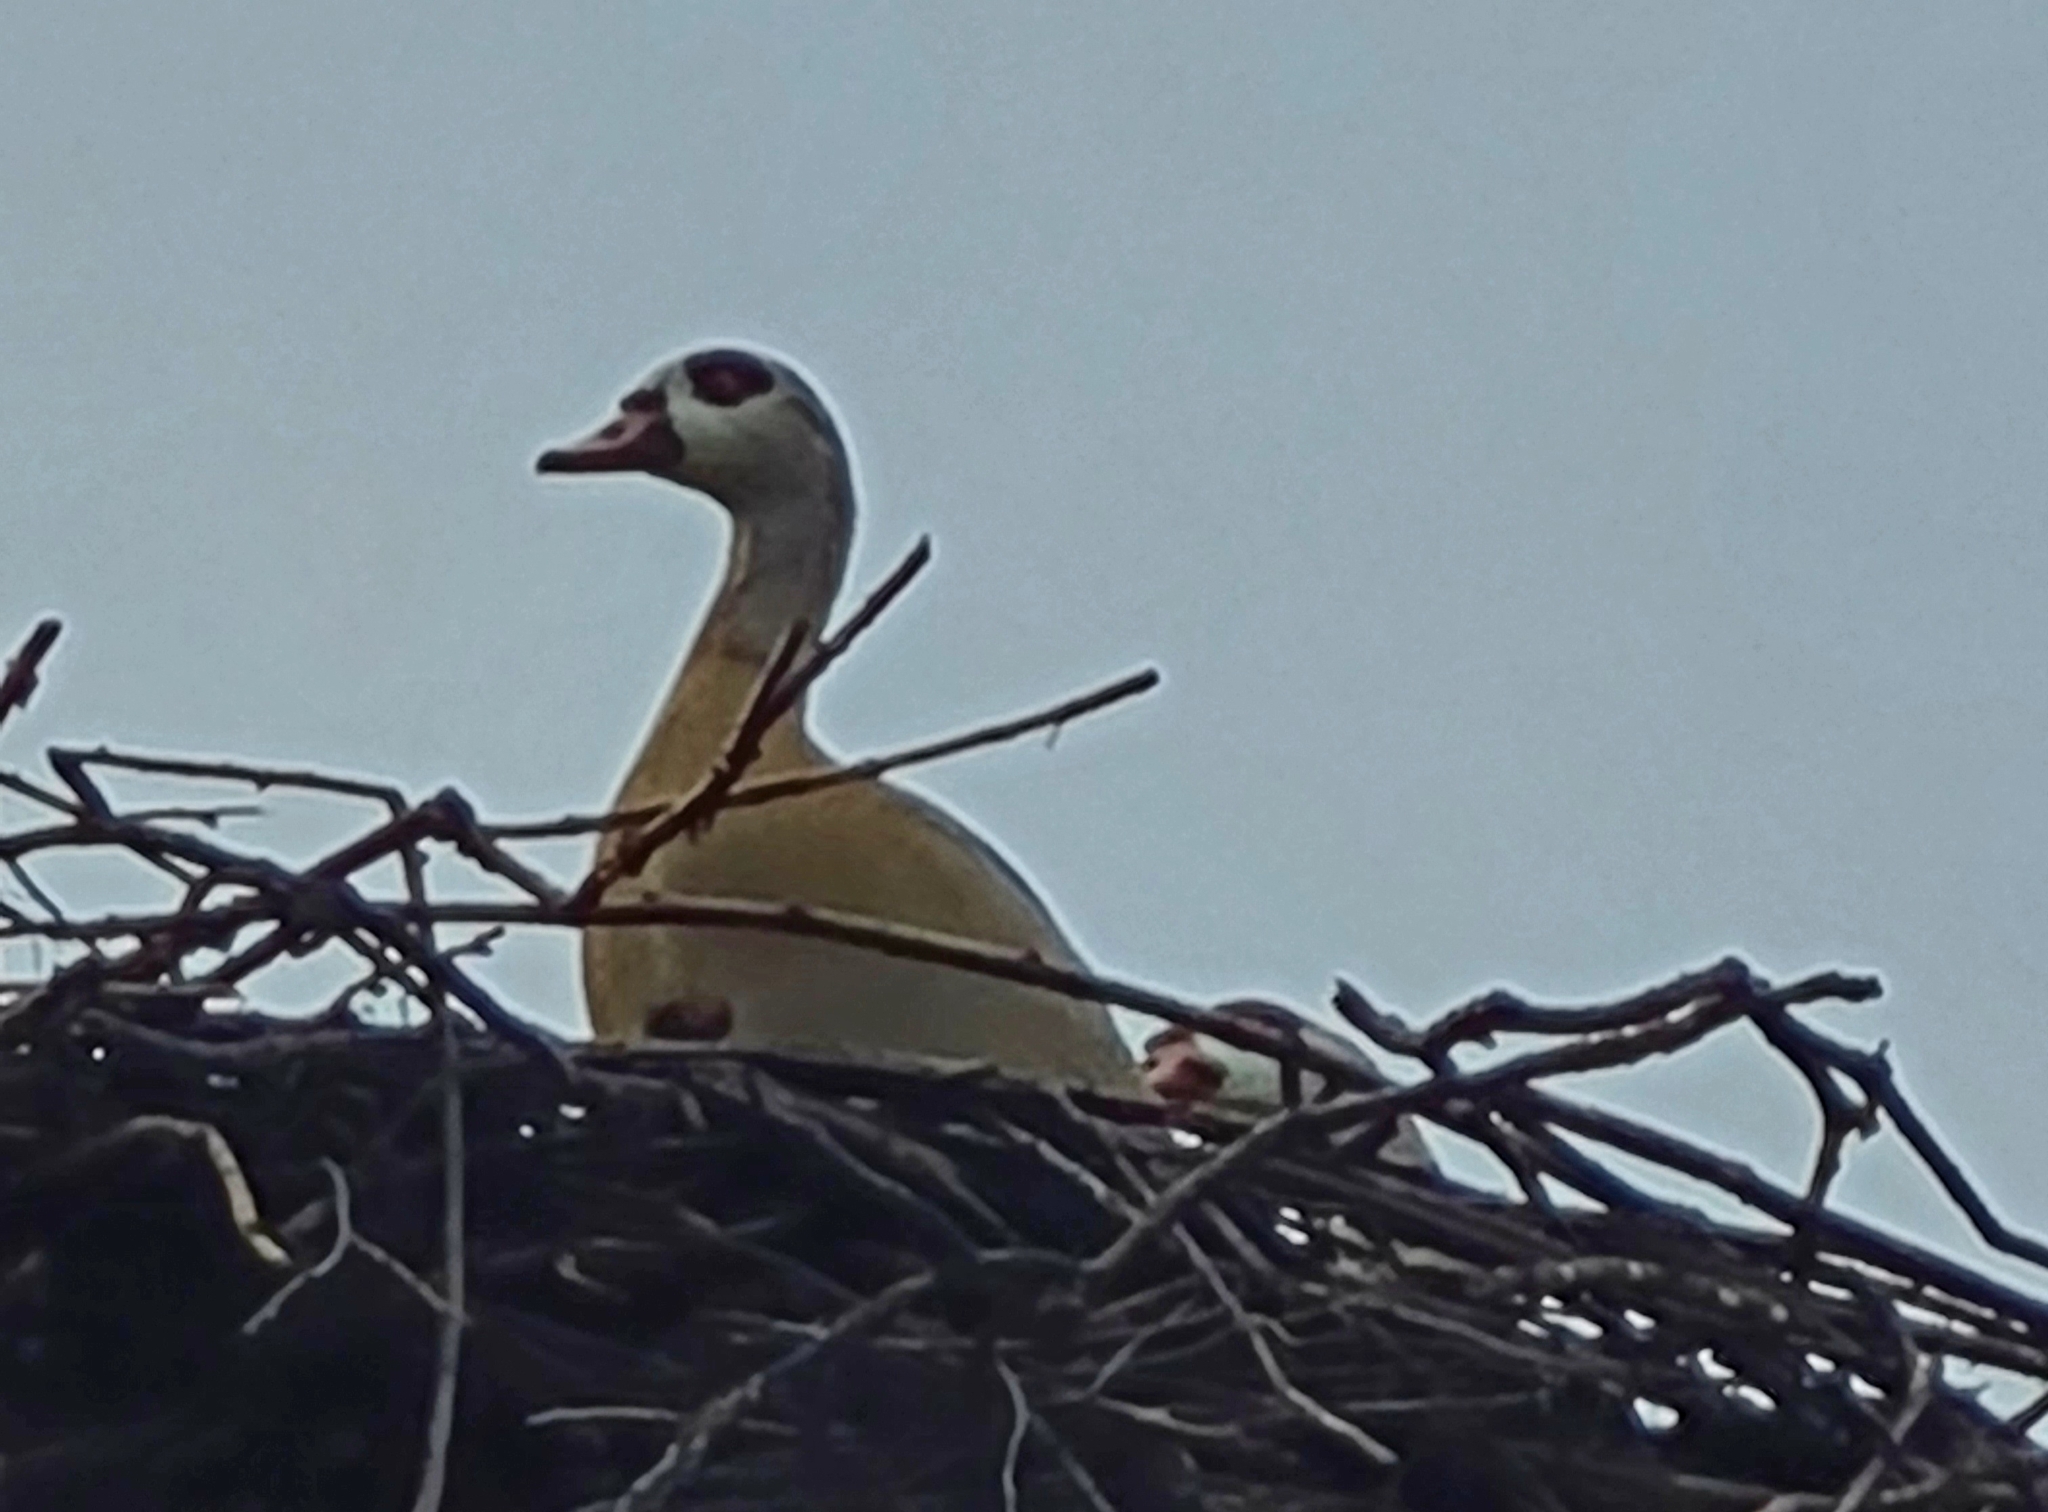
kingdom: Animalia
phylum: Chordata
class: Aves
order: Anseriformes
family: Anatidae
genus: Alopochen
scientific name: Alopochen aegyptiaca
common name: Egyptian goose
